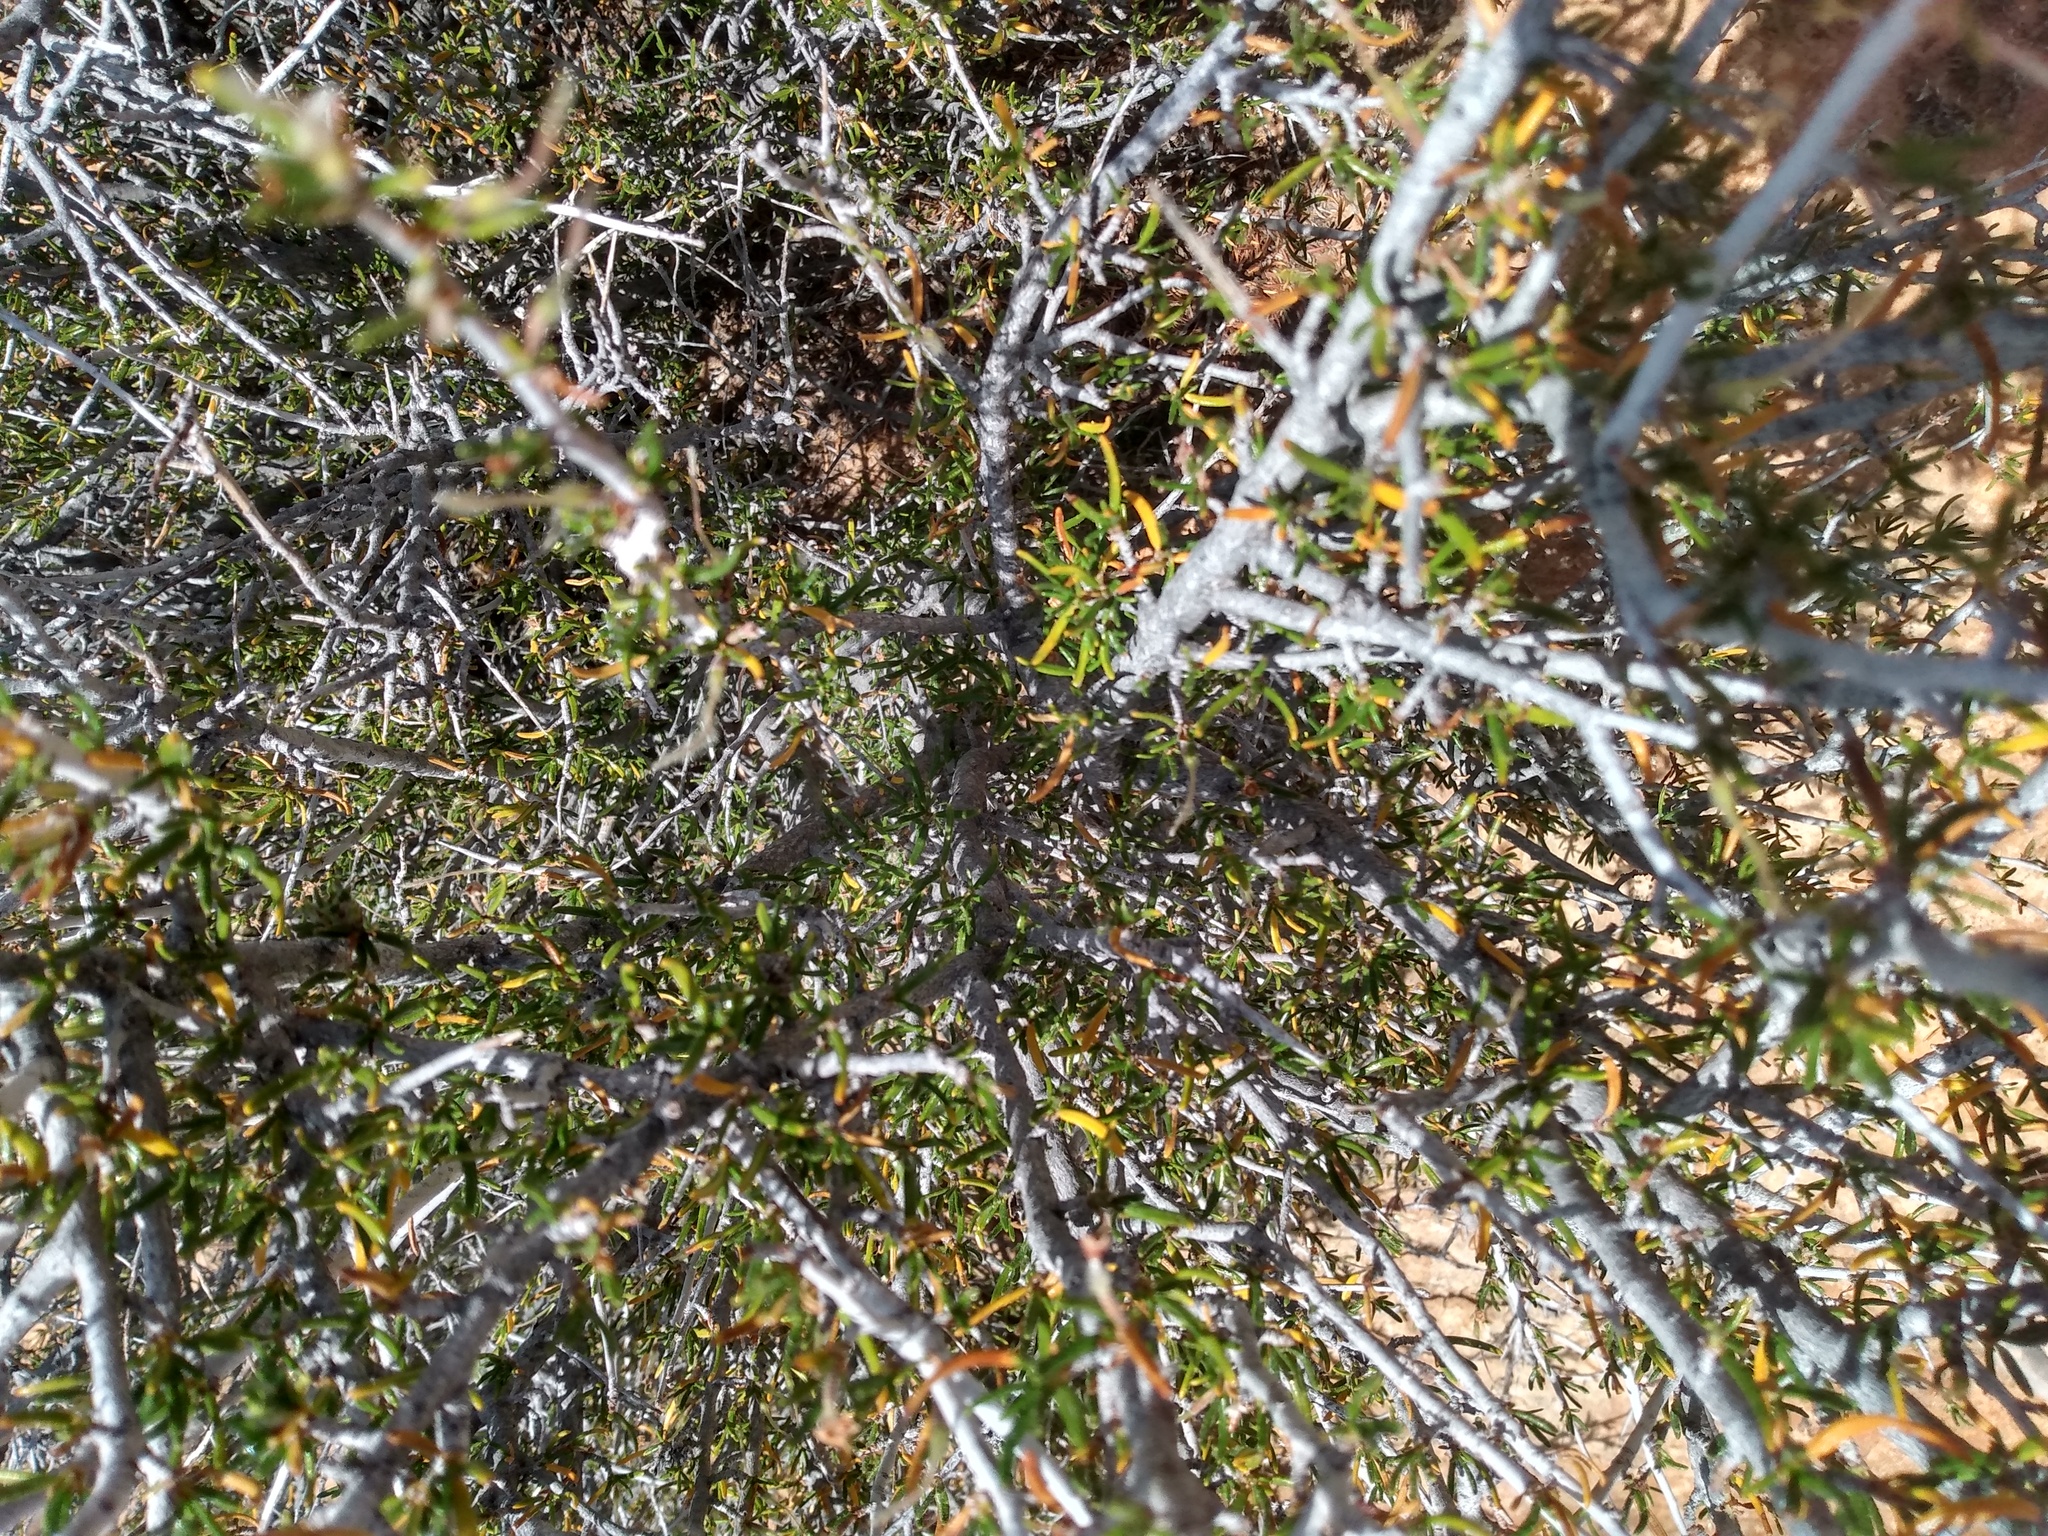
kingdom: Plantae
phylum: Tracheophyta
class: Magnoliopsida
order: Rosales
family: Rosaceae
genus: Cercocarpus
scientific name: Cercocarpus intricatus
